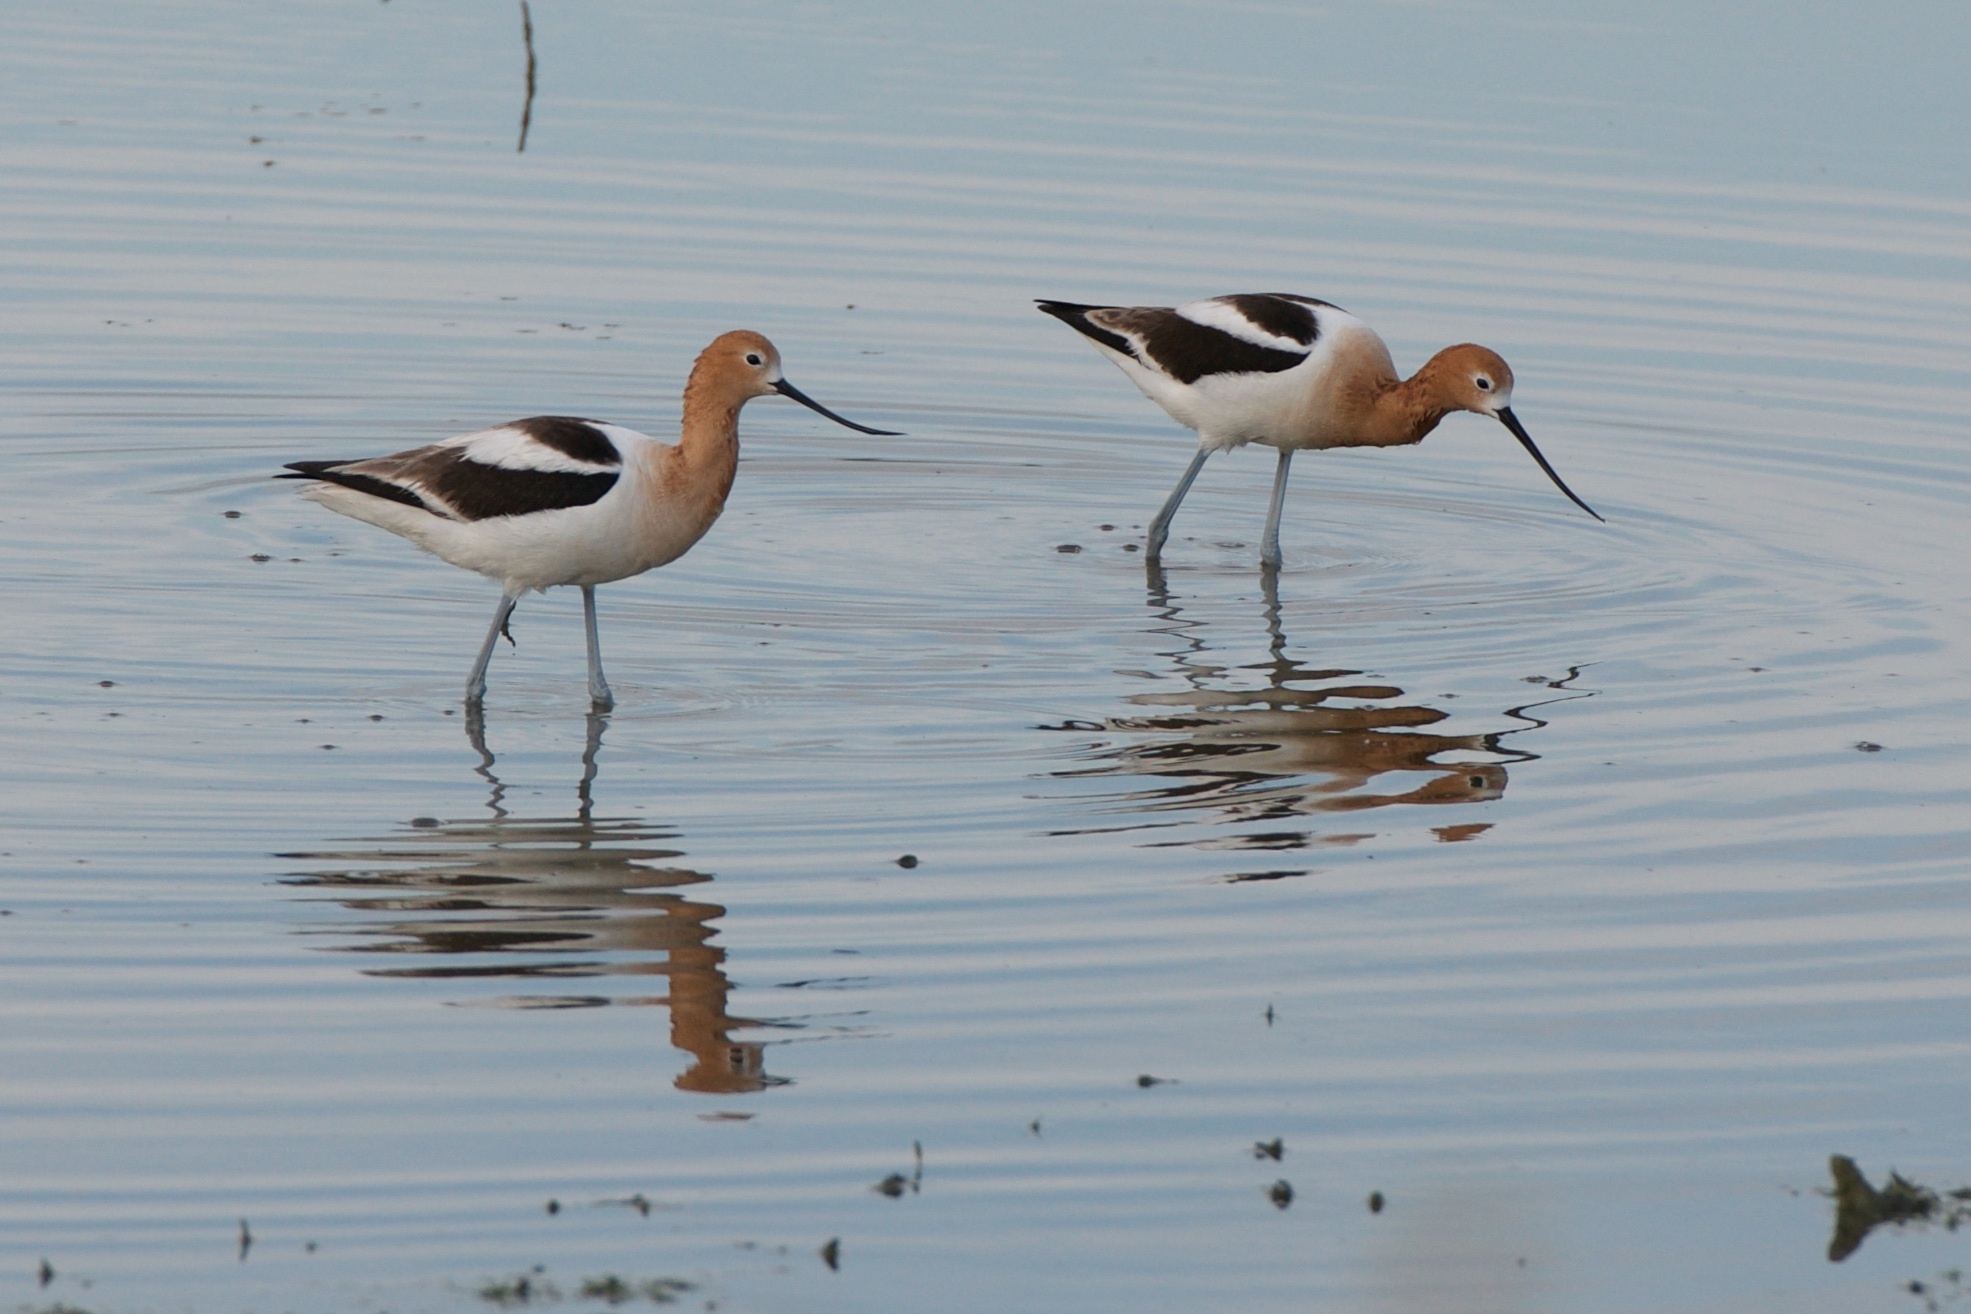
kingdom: Animalia
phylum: Chordata
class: Aves
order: Charadriiformes
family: Recurvirostridae
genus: Recurvirostra
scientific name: Recurvirostra americana
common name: American avocet
